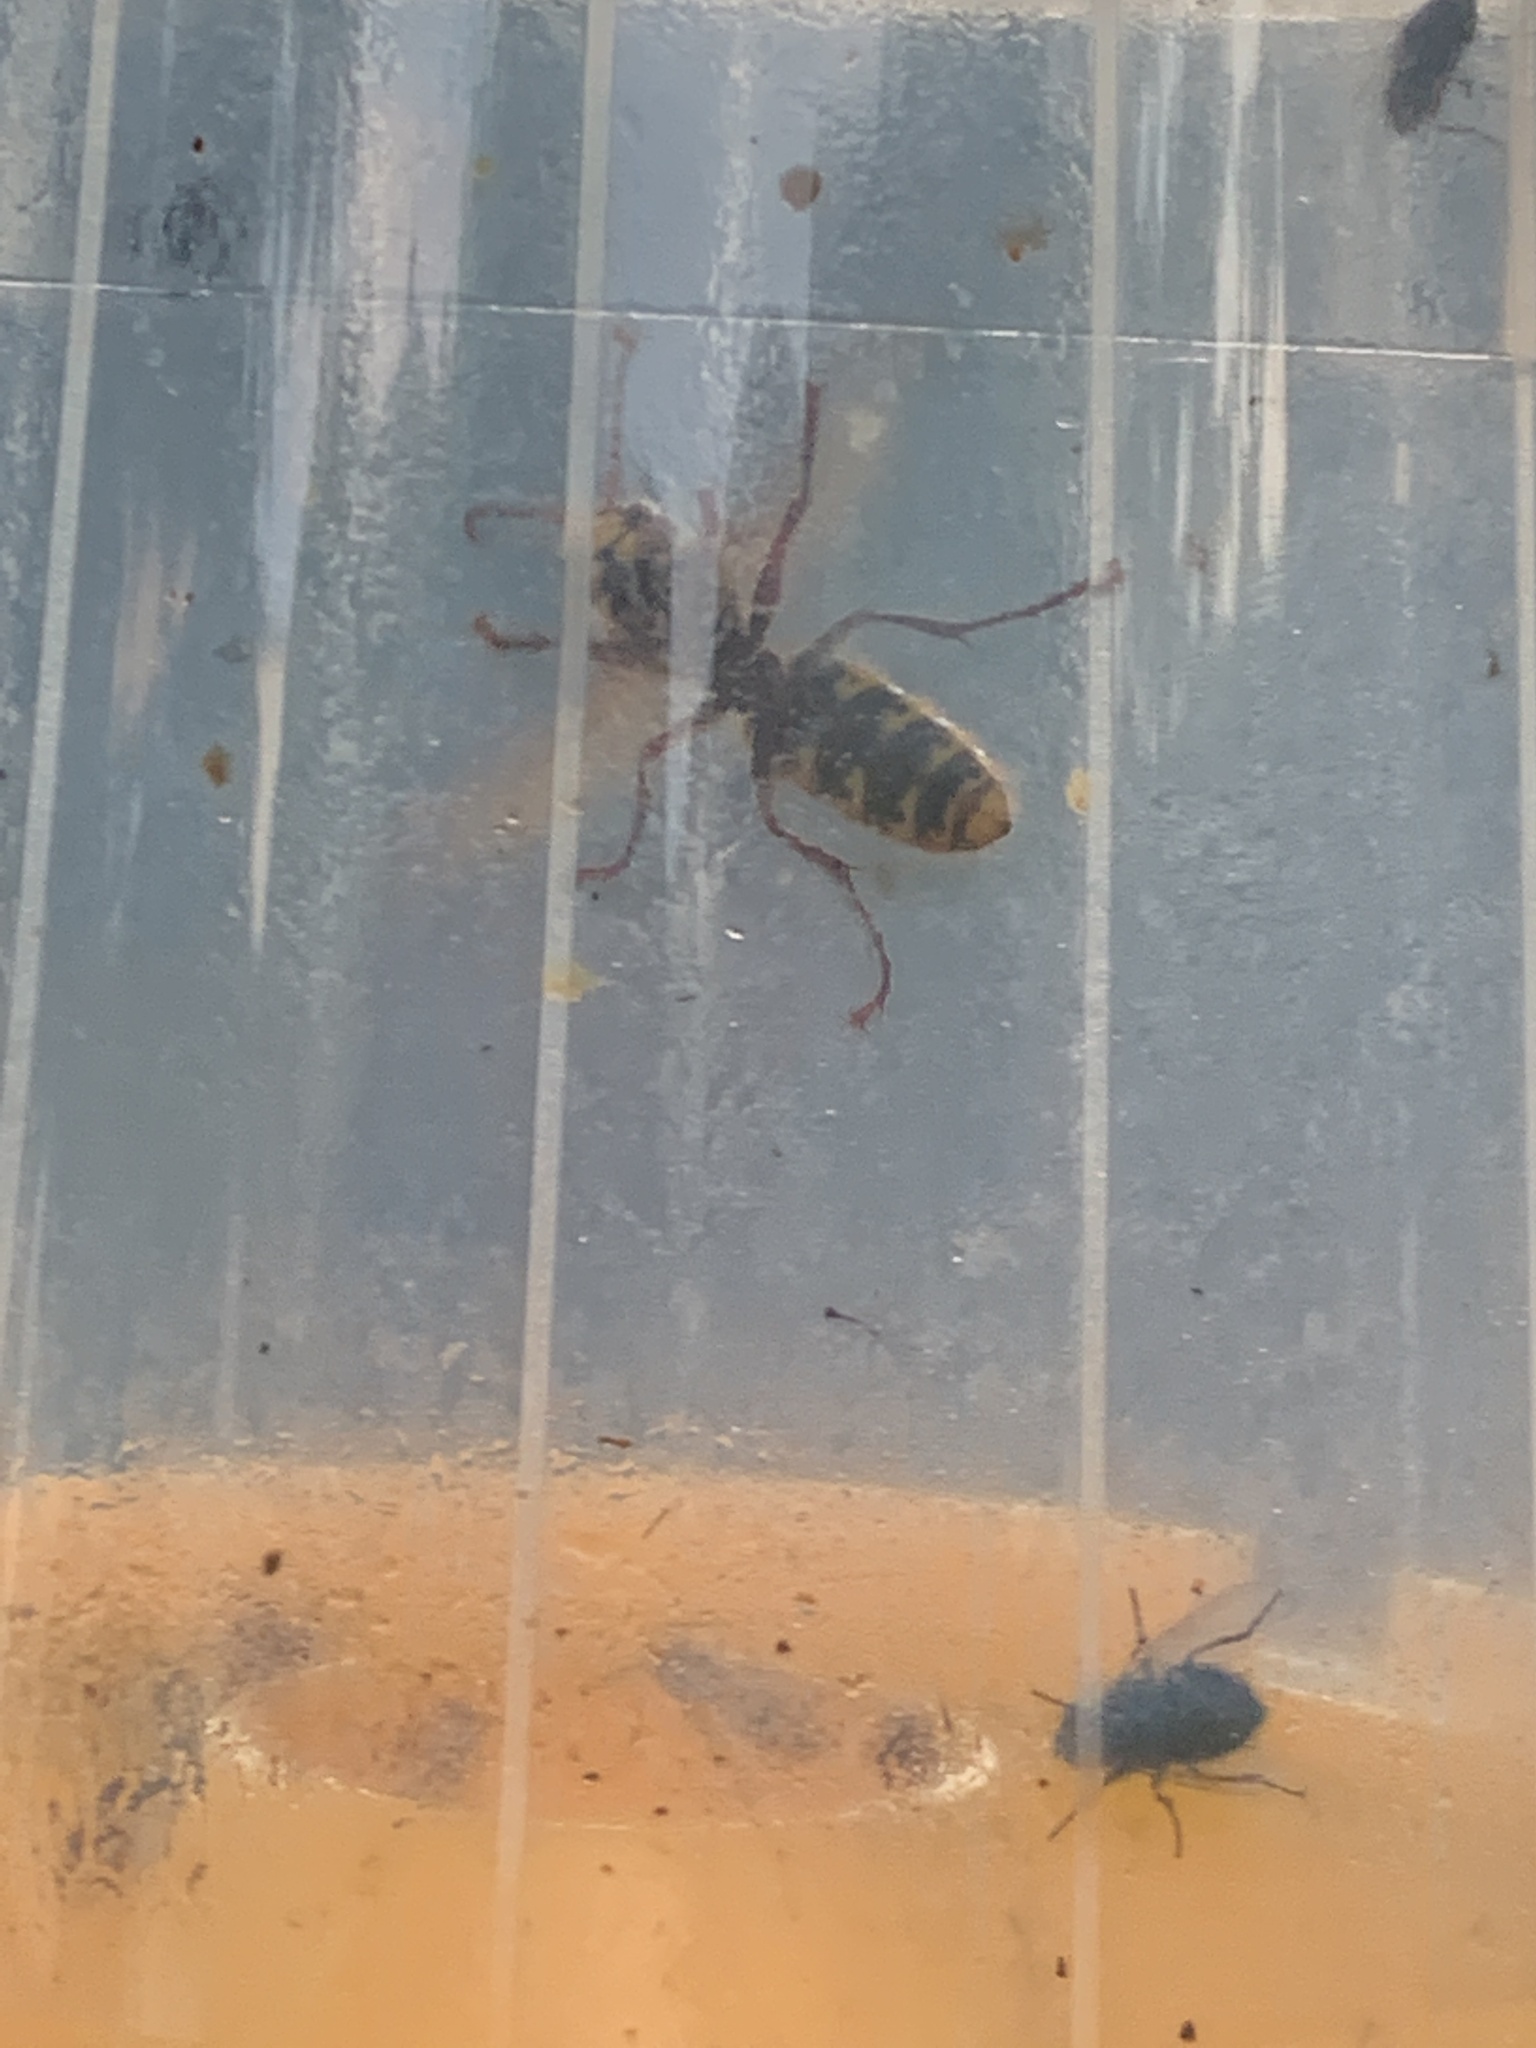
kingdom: Animalia
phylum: Arthropoda
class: Insecta
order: Hymenoptera
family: Vespidae
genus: Vespa
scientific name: Vespa crabro
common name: Hornet
